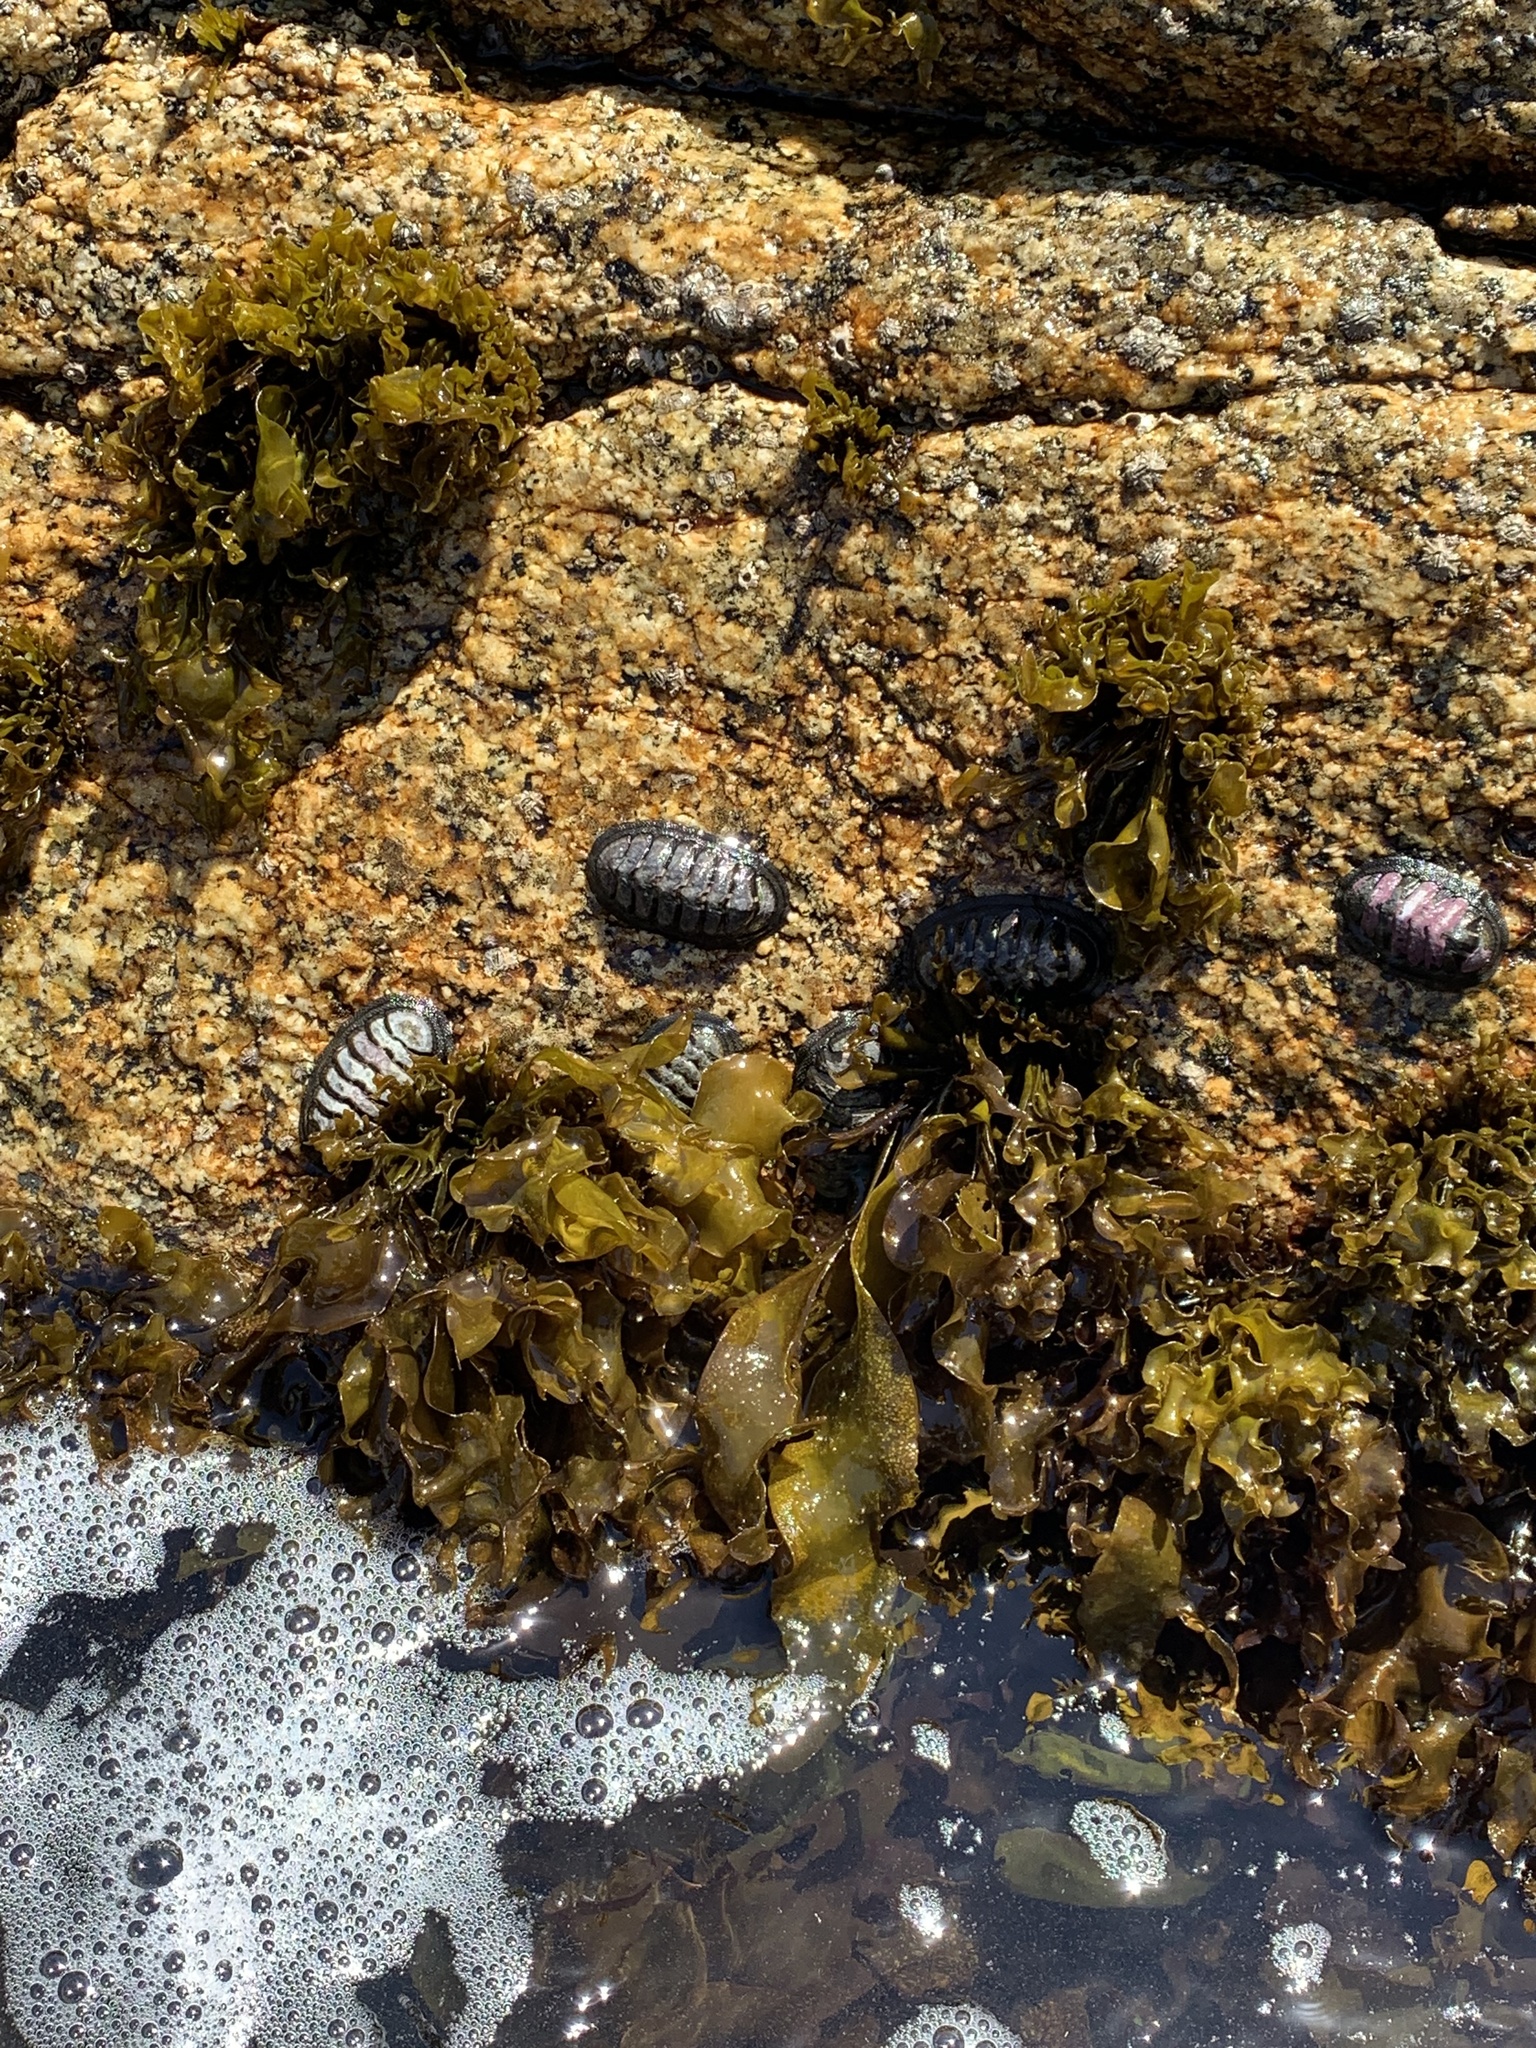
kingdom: Animalia
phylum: Mollusca
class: Polyplacophora
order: Chitonida
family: Chitonidae
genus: Chiton
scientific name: Chiton granosus
